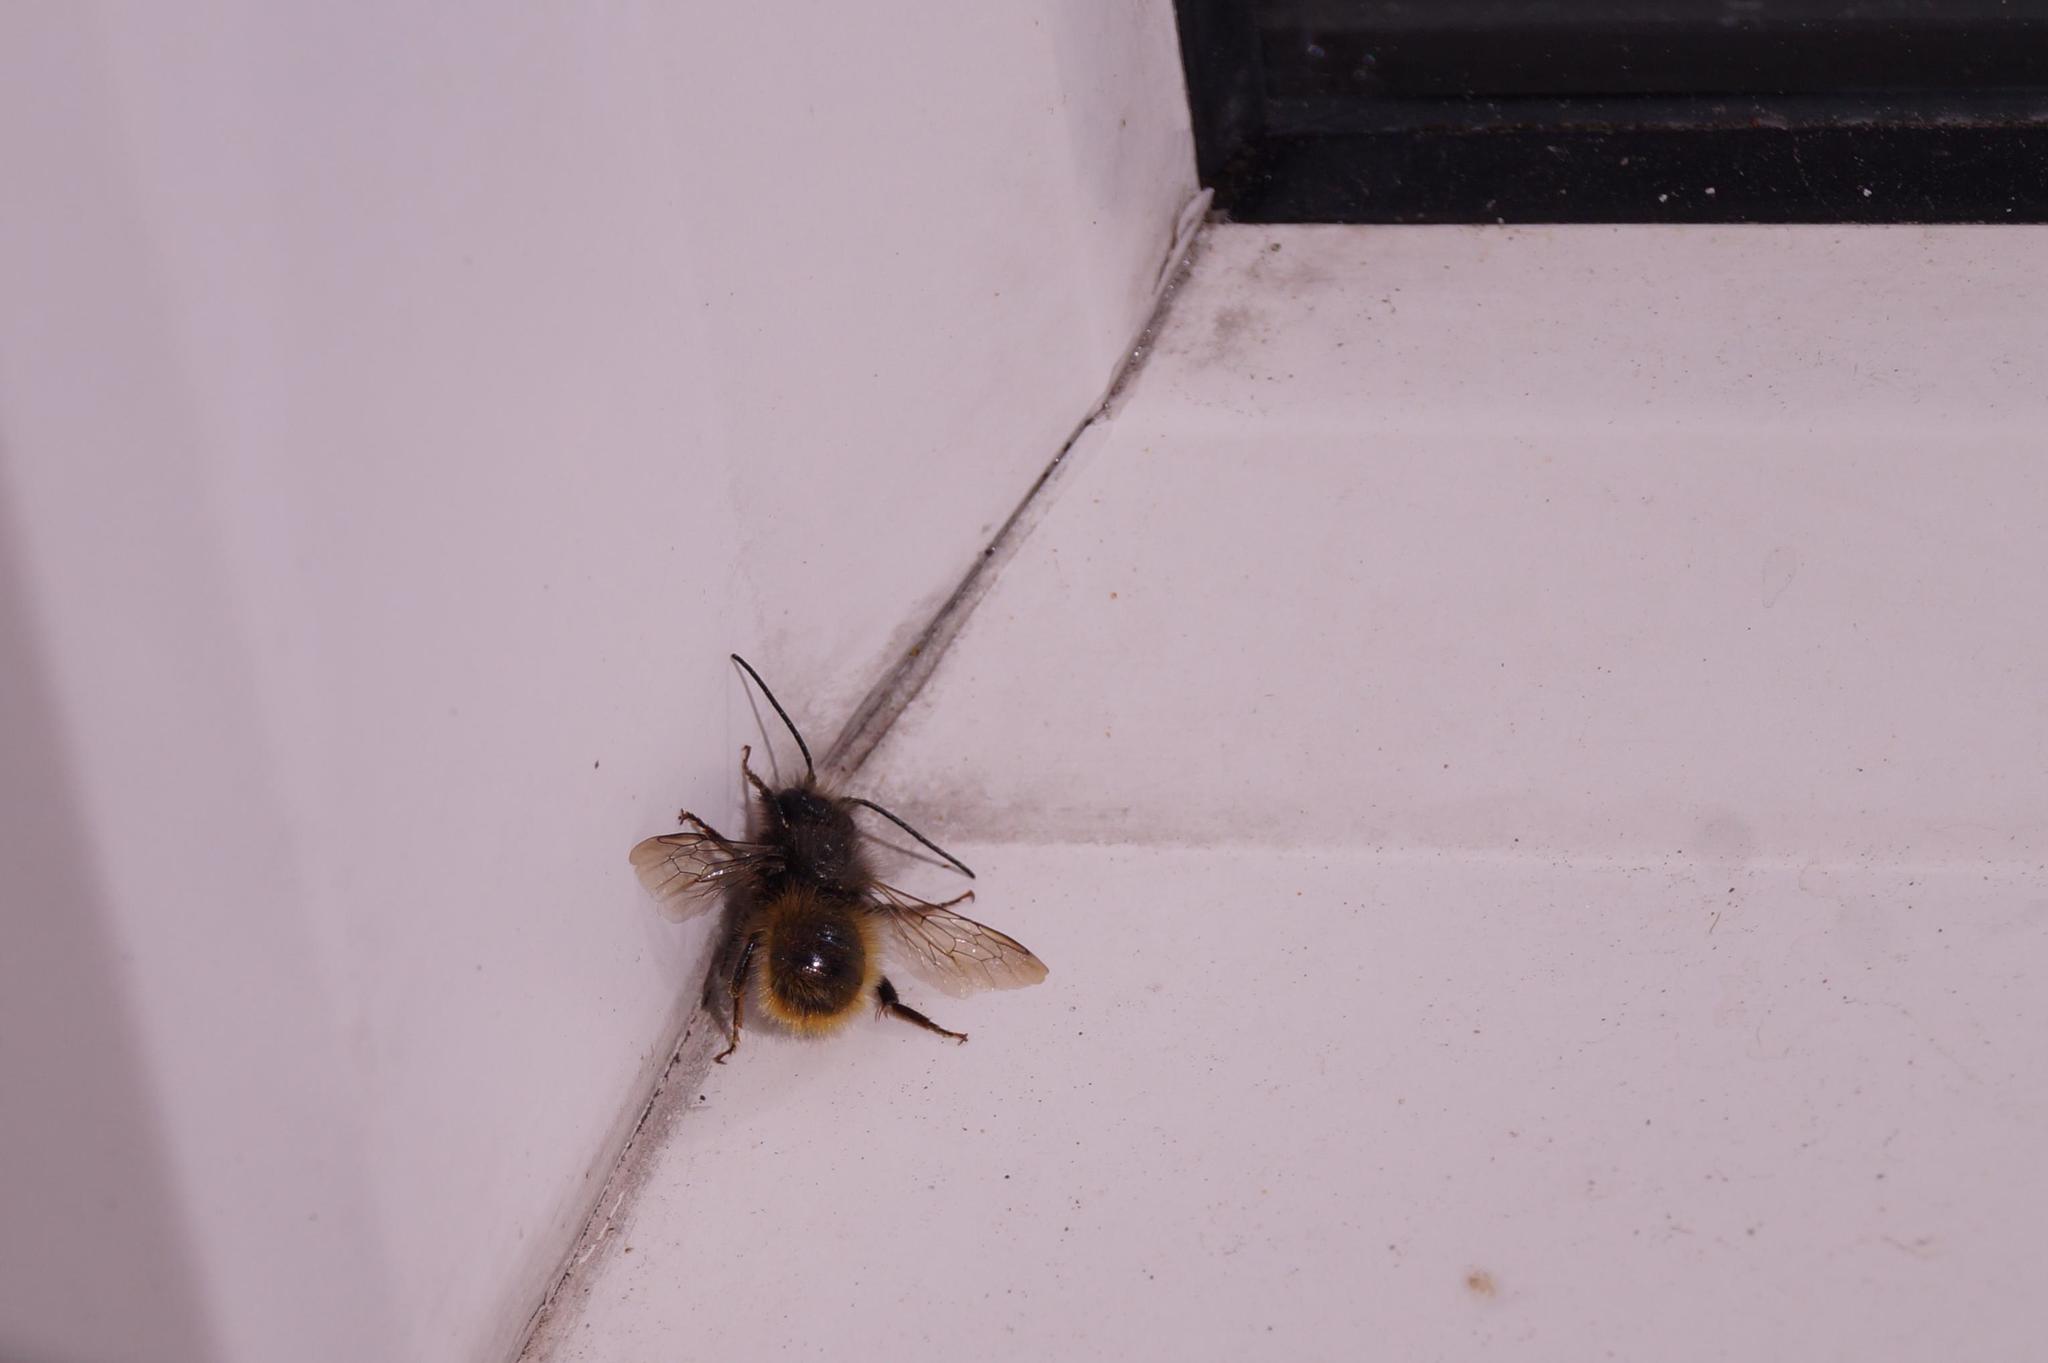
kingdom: Animalia
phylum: Arthropoda
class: Insecta
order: Hymenoptera
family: Megachilidae
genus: Osmia
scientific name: Osmia cornuta
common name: Mason bee
